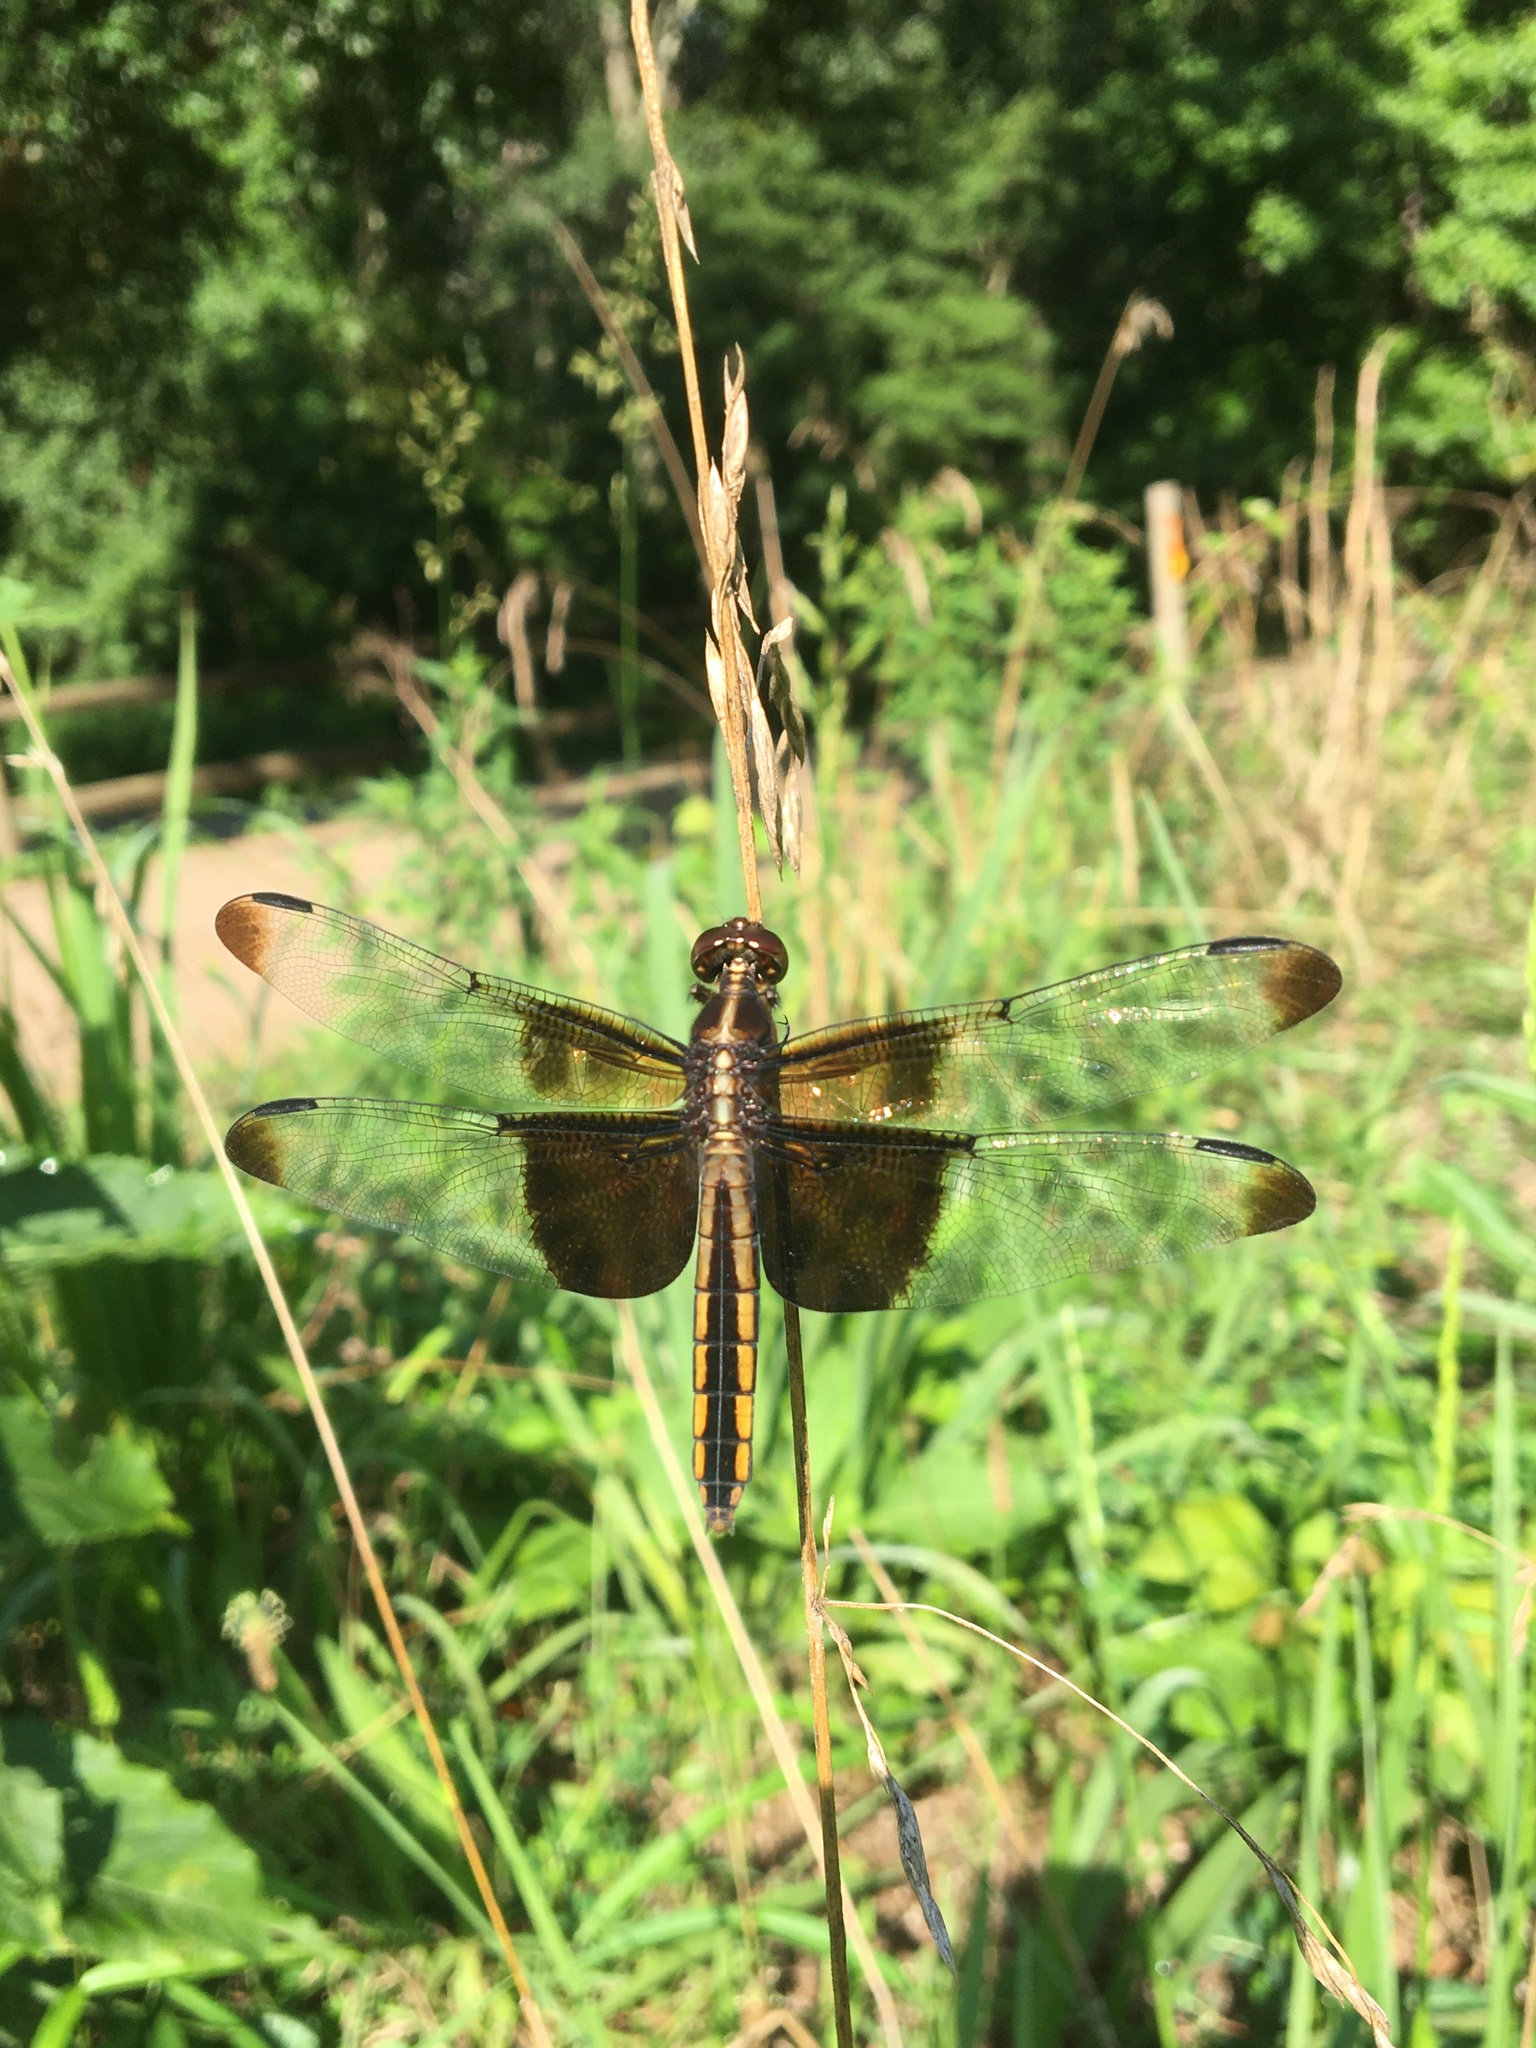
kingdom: Animalia
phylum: Arthropoda
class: Insecta
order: Odonata
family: Libellulidae
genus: Libellula
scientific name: Libellula luctuosa
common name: Widow skimmer
